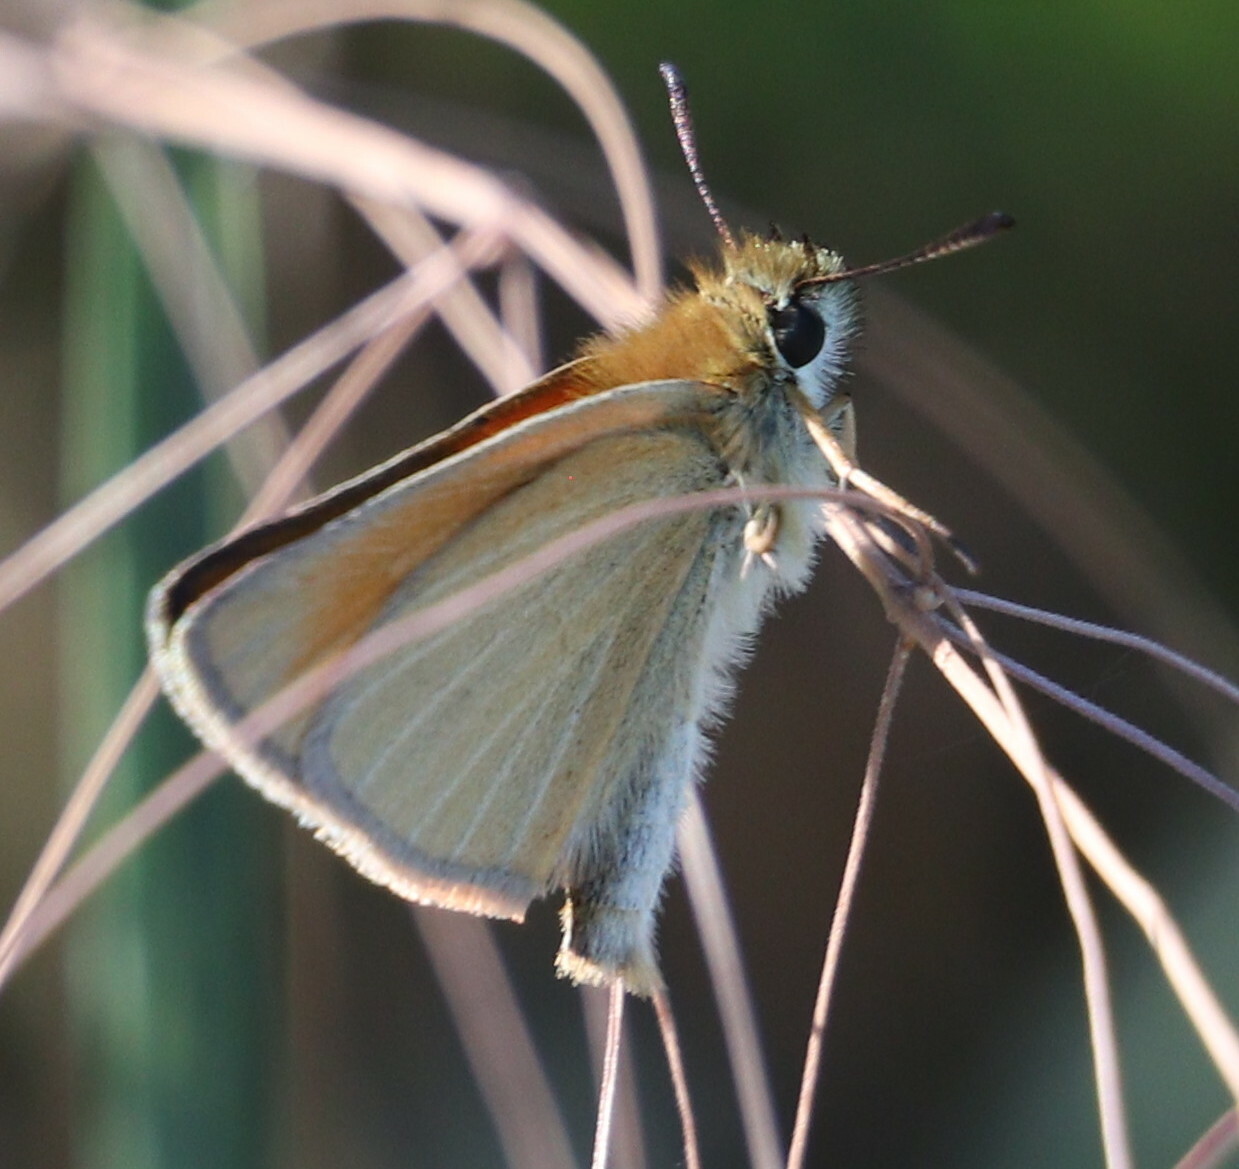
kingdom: Animalia
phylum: Arthropoda
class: Insecta
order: Lepidoptera
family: Hesperiidae
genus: Thymelicus
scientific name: Thymelicus lineola
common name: Essex skipper
